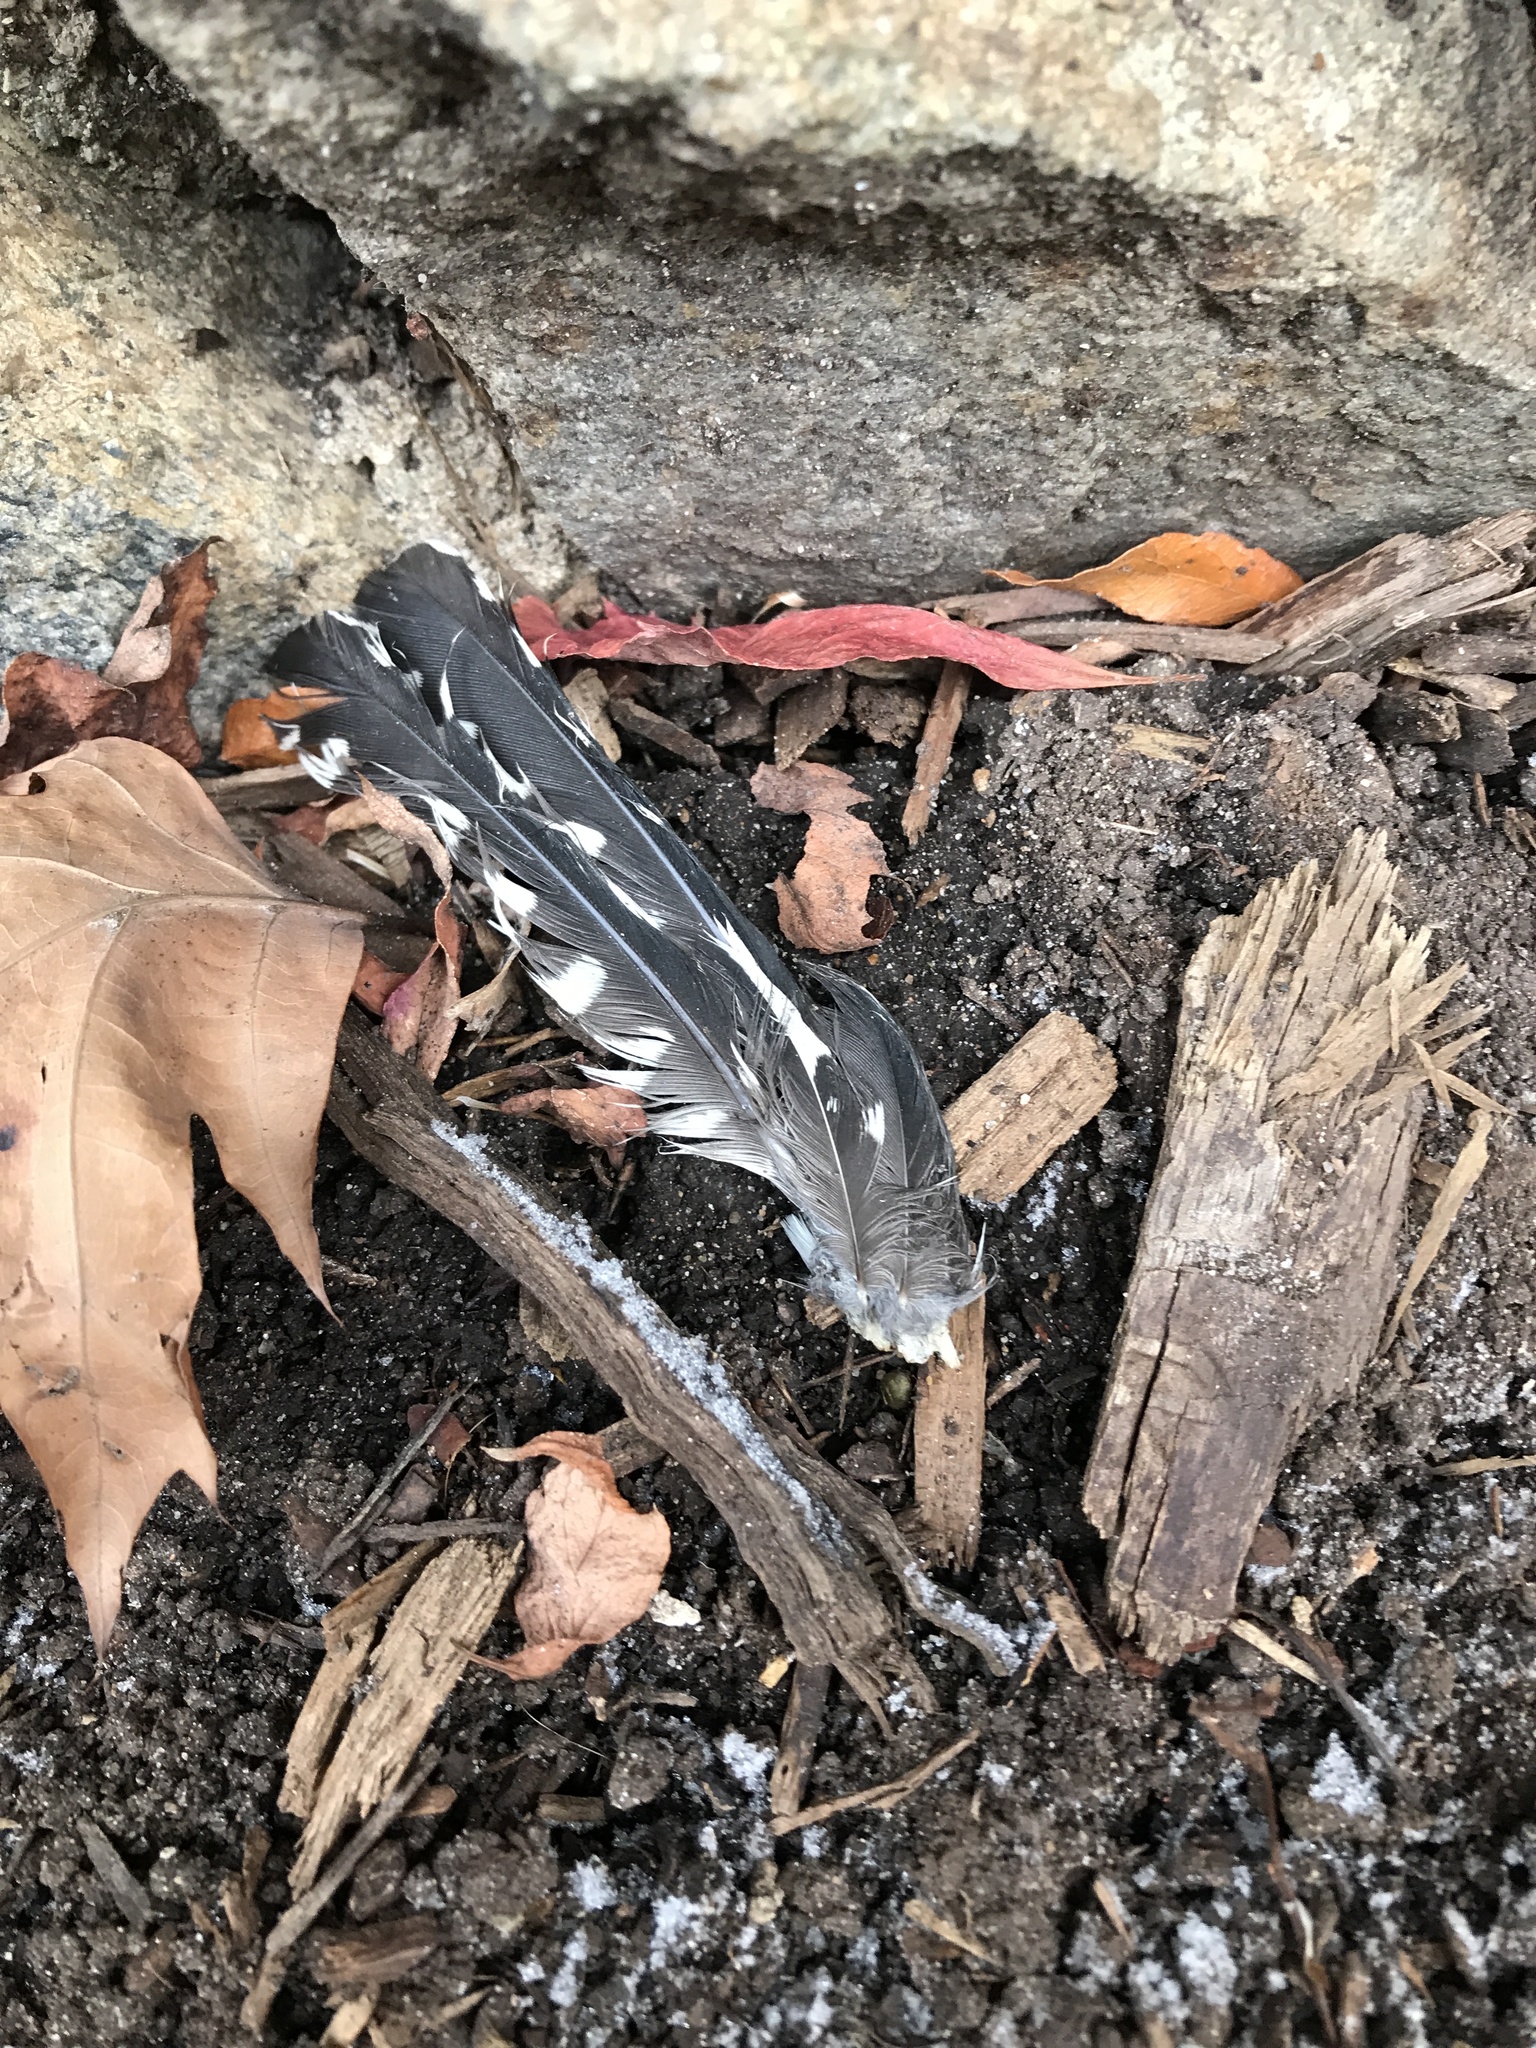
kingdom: Animalia
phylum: Chordata
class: Aves
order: Piciformes
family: Picidae
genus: Melanerpes
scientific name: Melanerpes carolinus
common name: Red-bellied woodpecker
